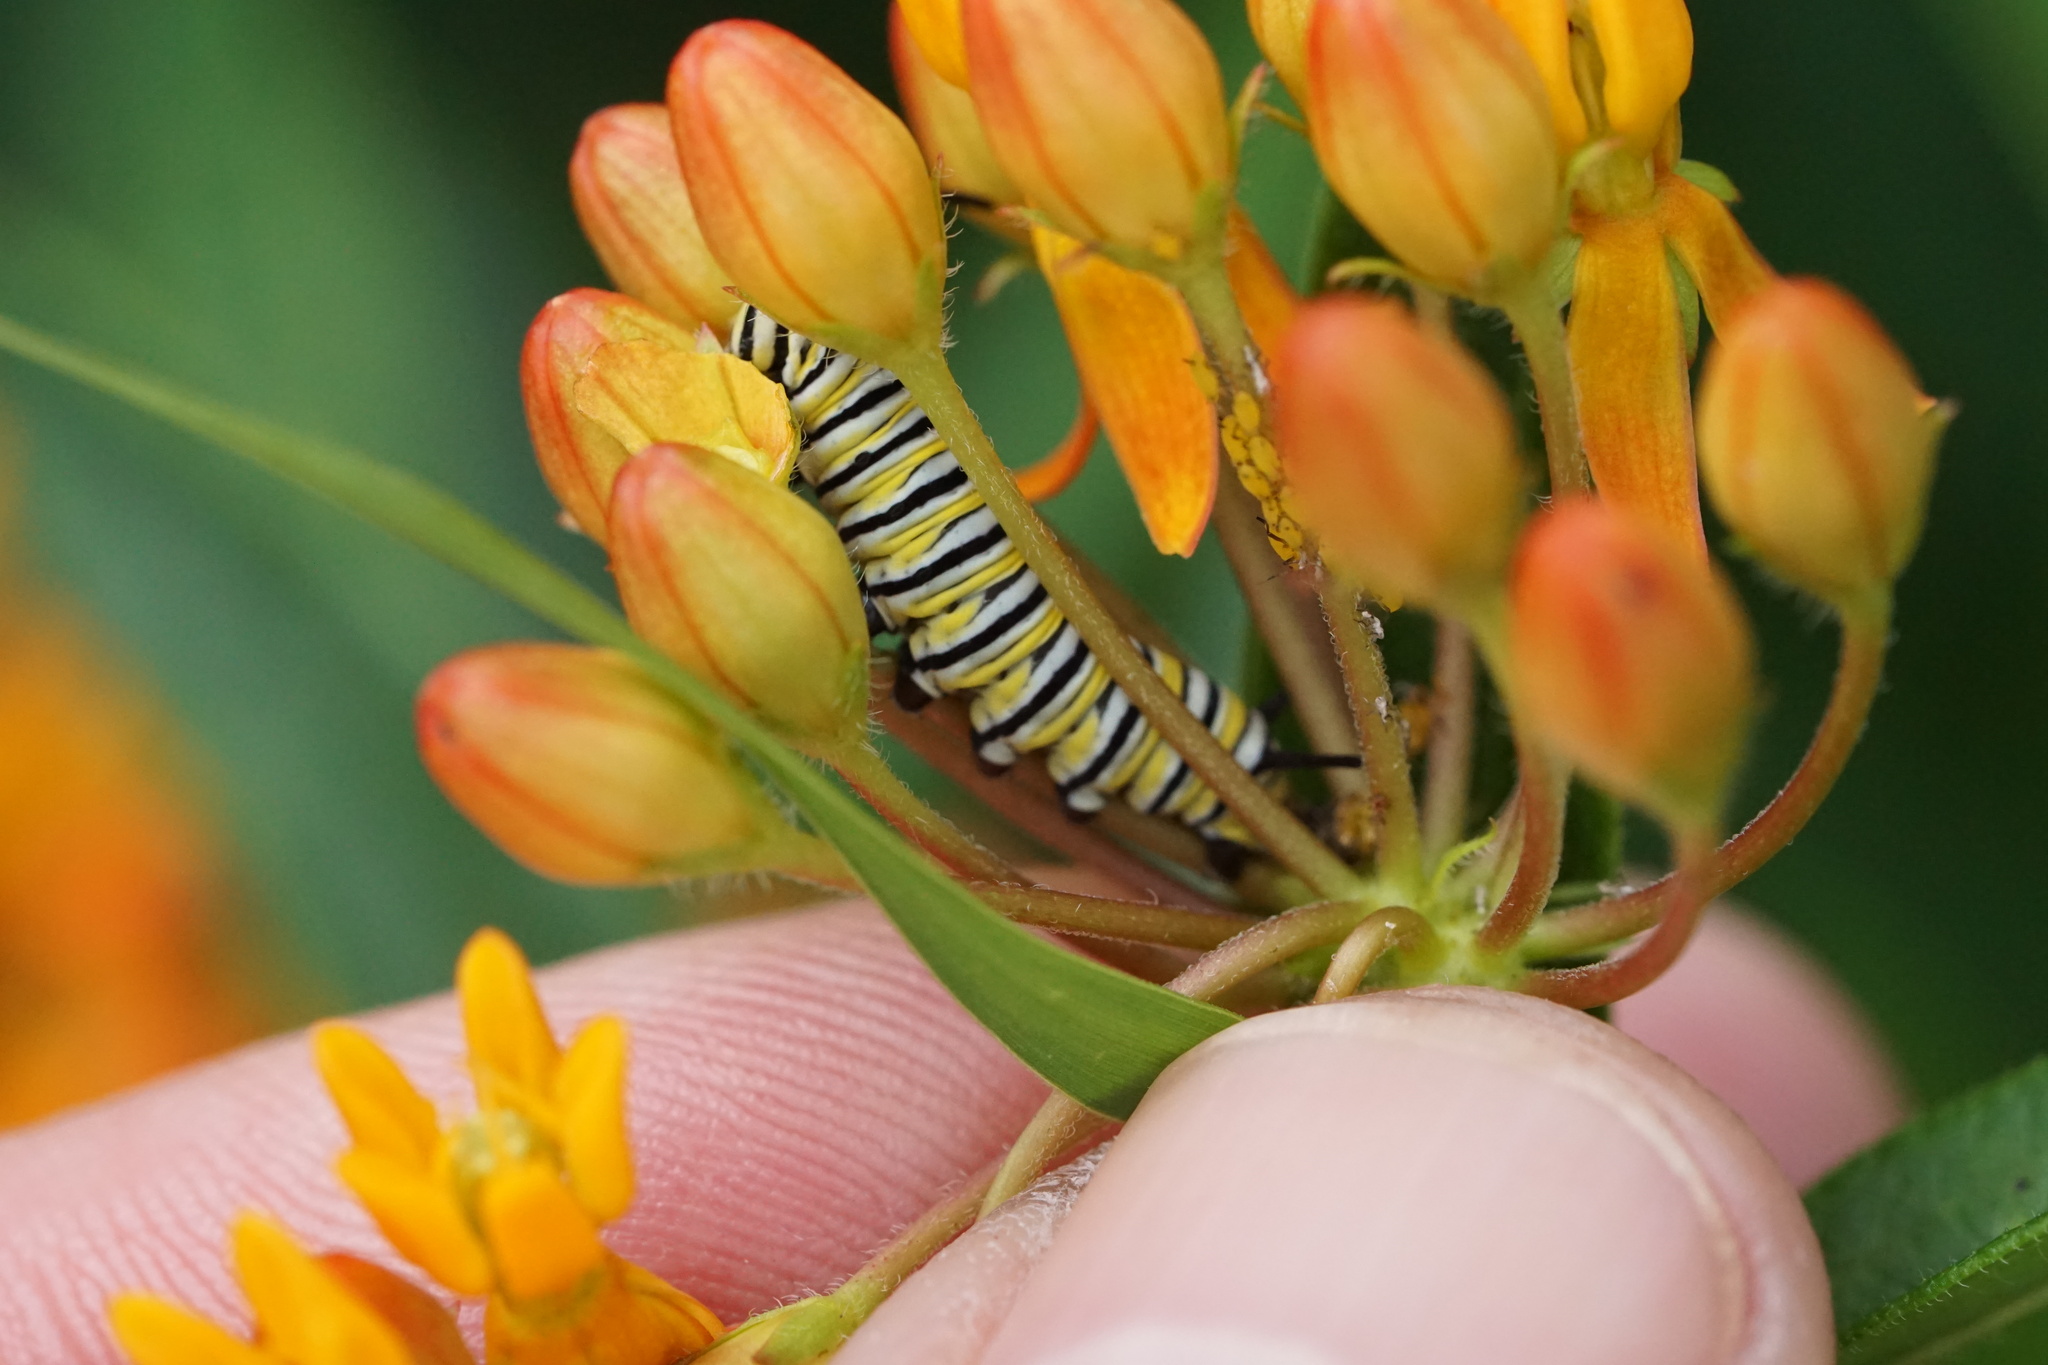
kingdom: Animalia
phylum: Arthropoda
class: Insecta
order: Lepidoptera
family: Nymphalidae
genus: Danaus
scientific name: Danaus plexippus
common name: Monarch
